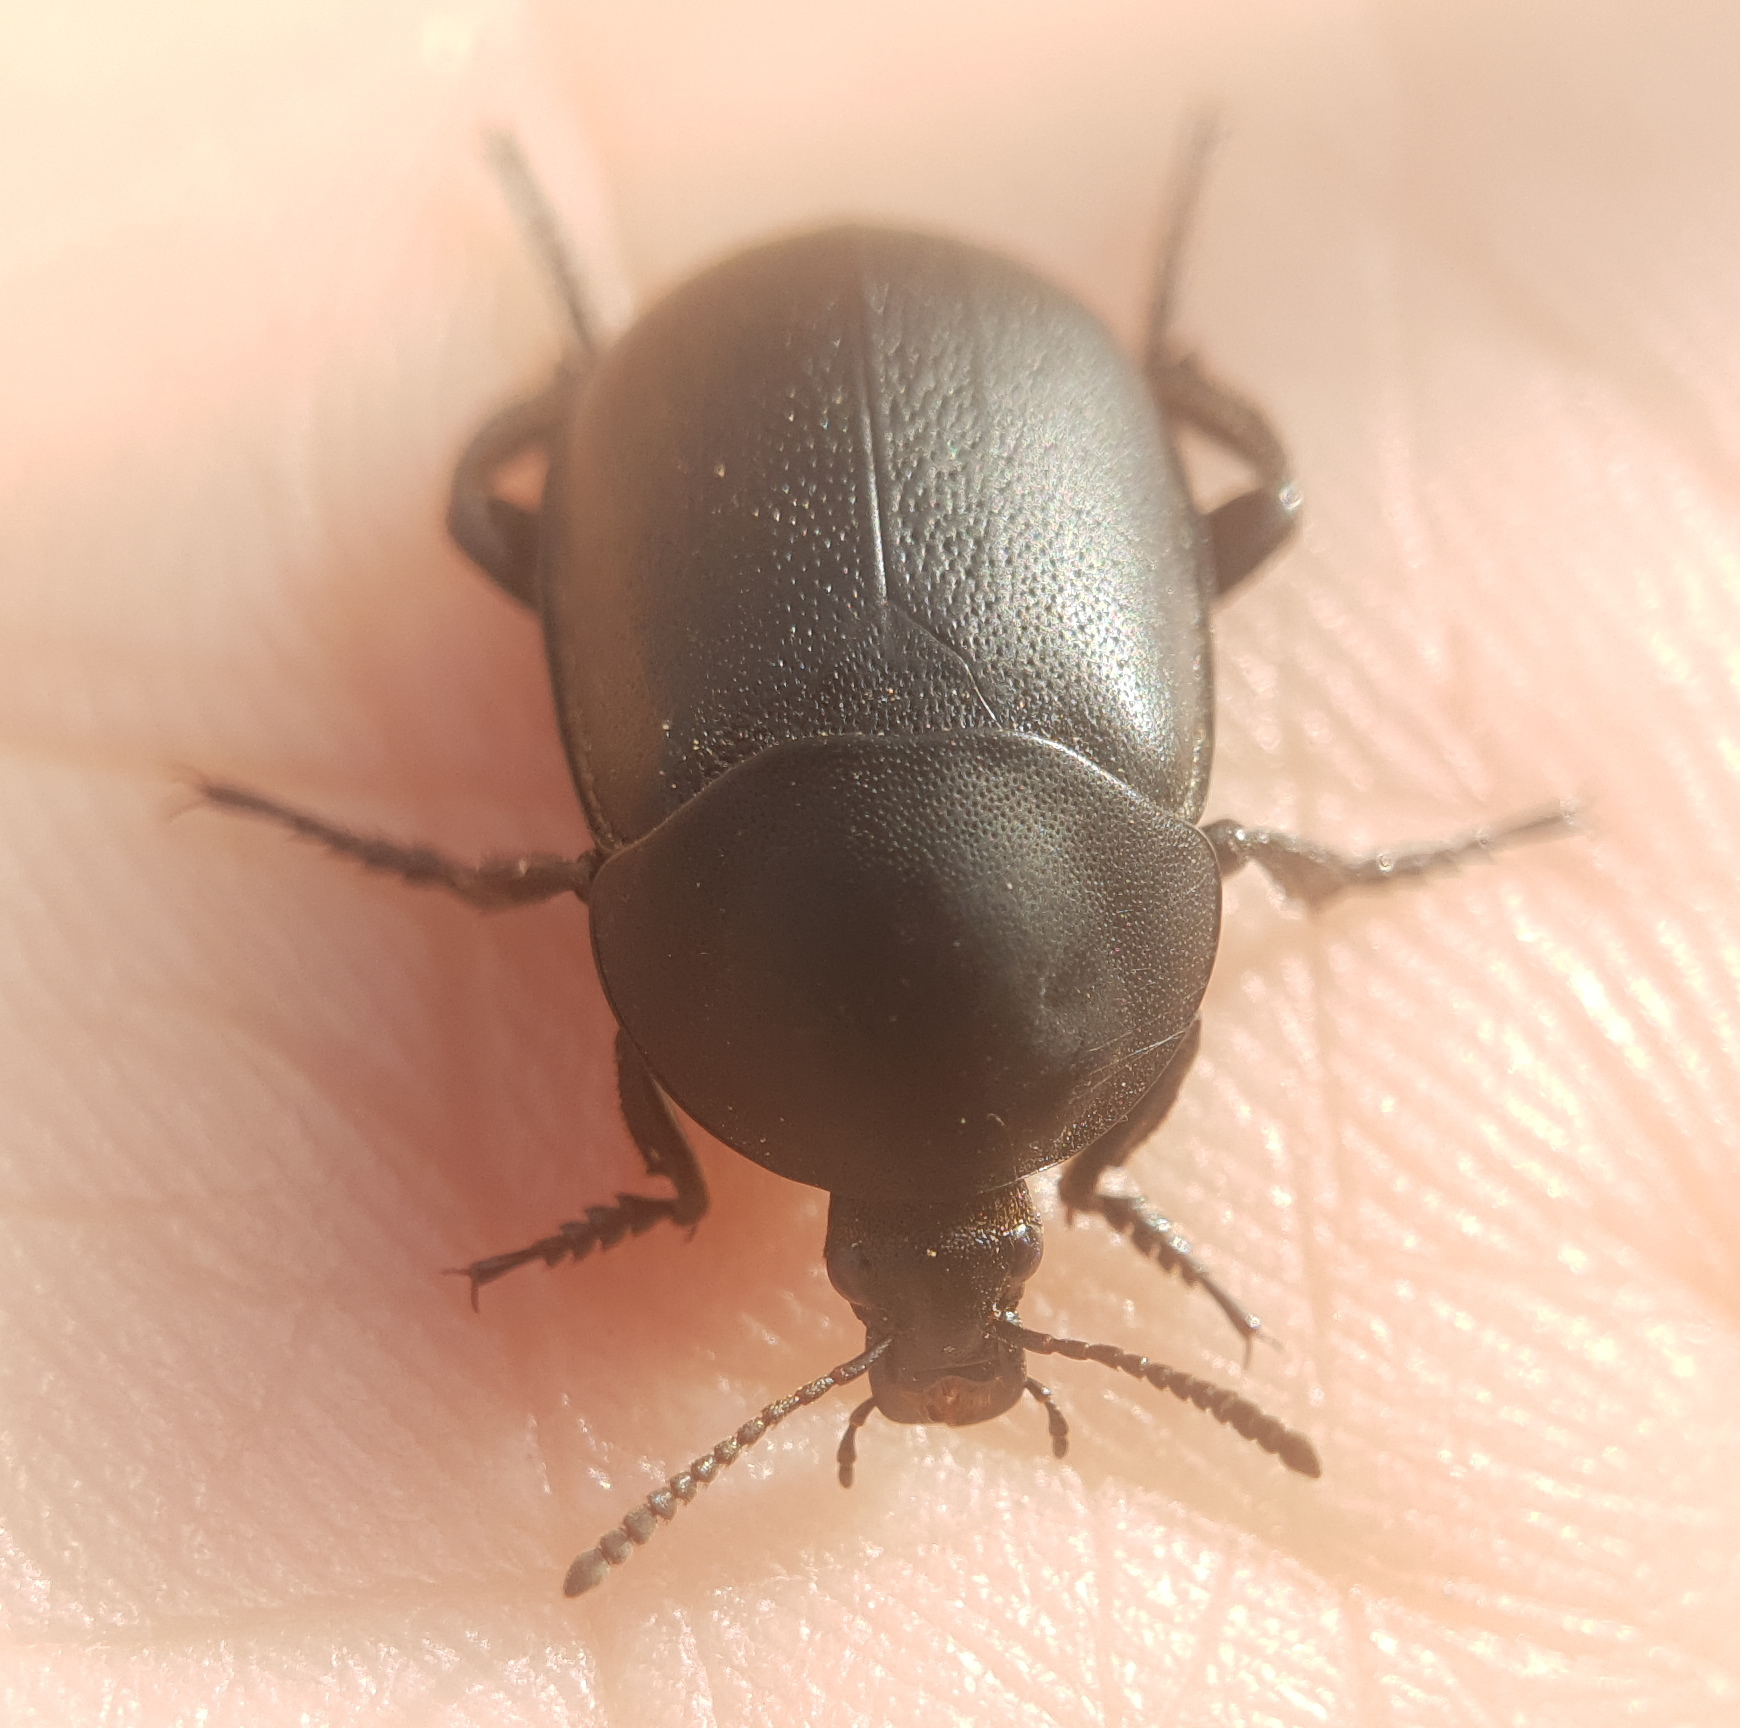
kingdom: Animalia
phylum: Arthropoda
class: Insecta
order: Coleoptera
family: Silphidae
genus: Ablattaria
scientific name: Ablattaria arenaria
